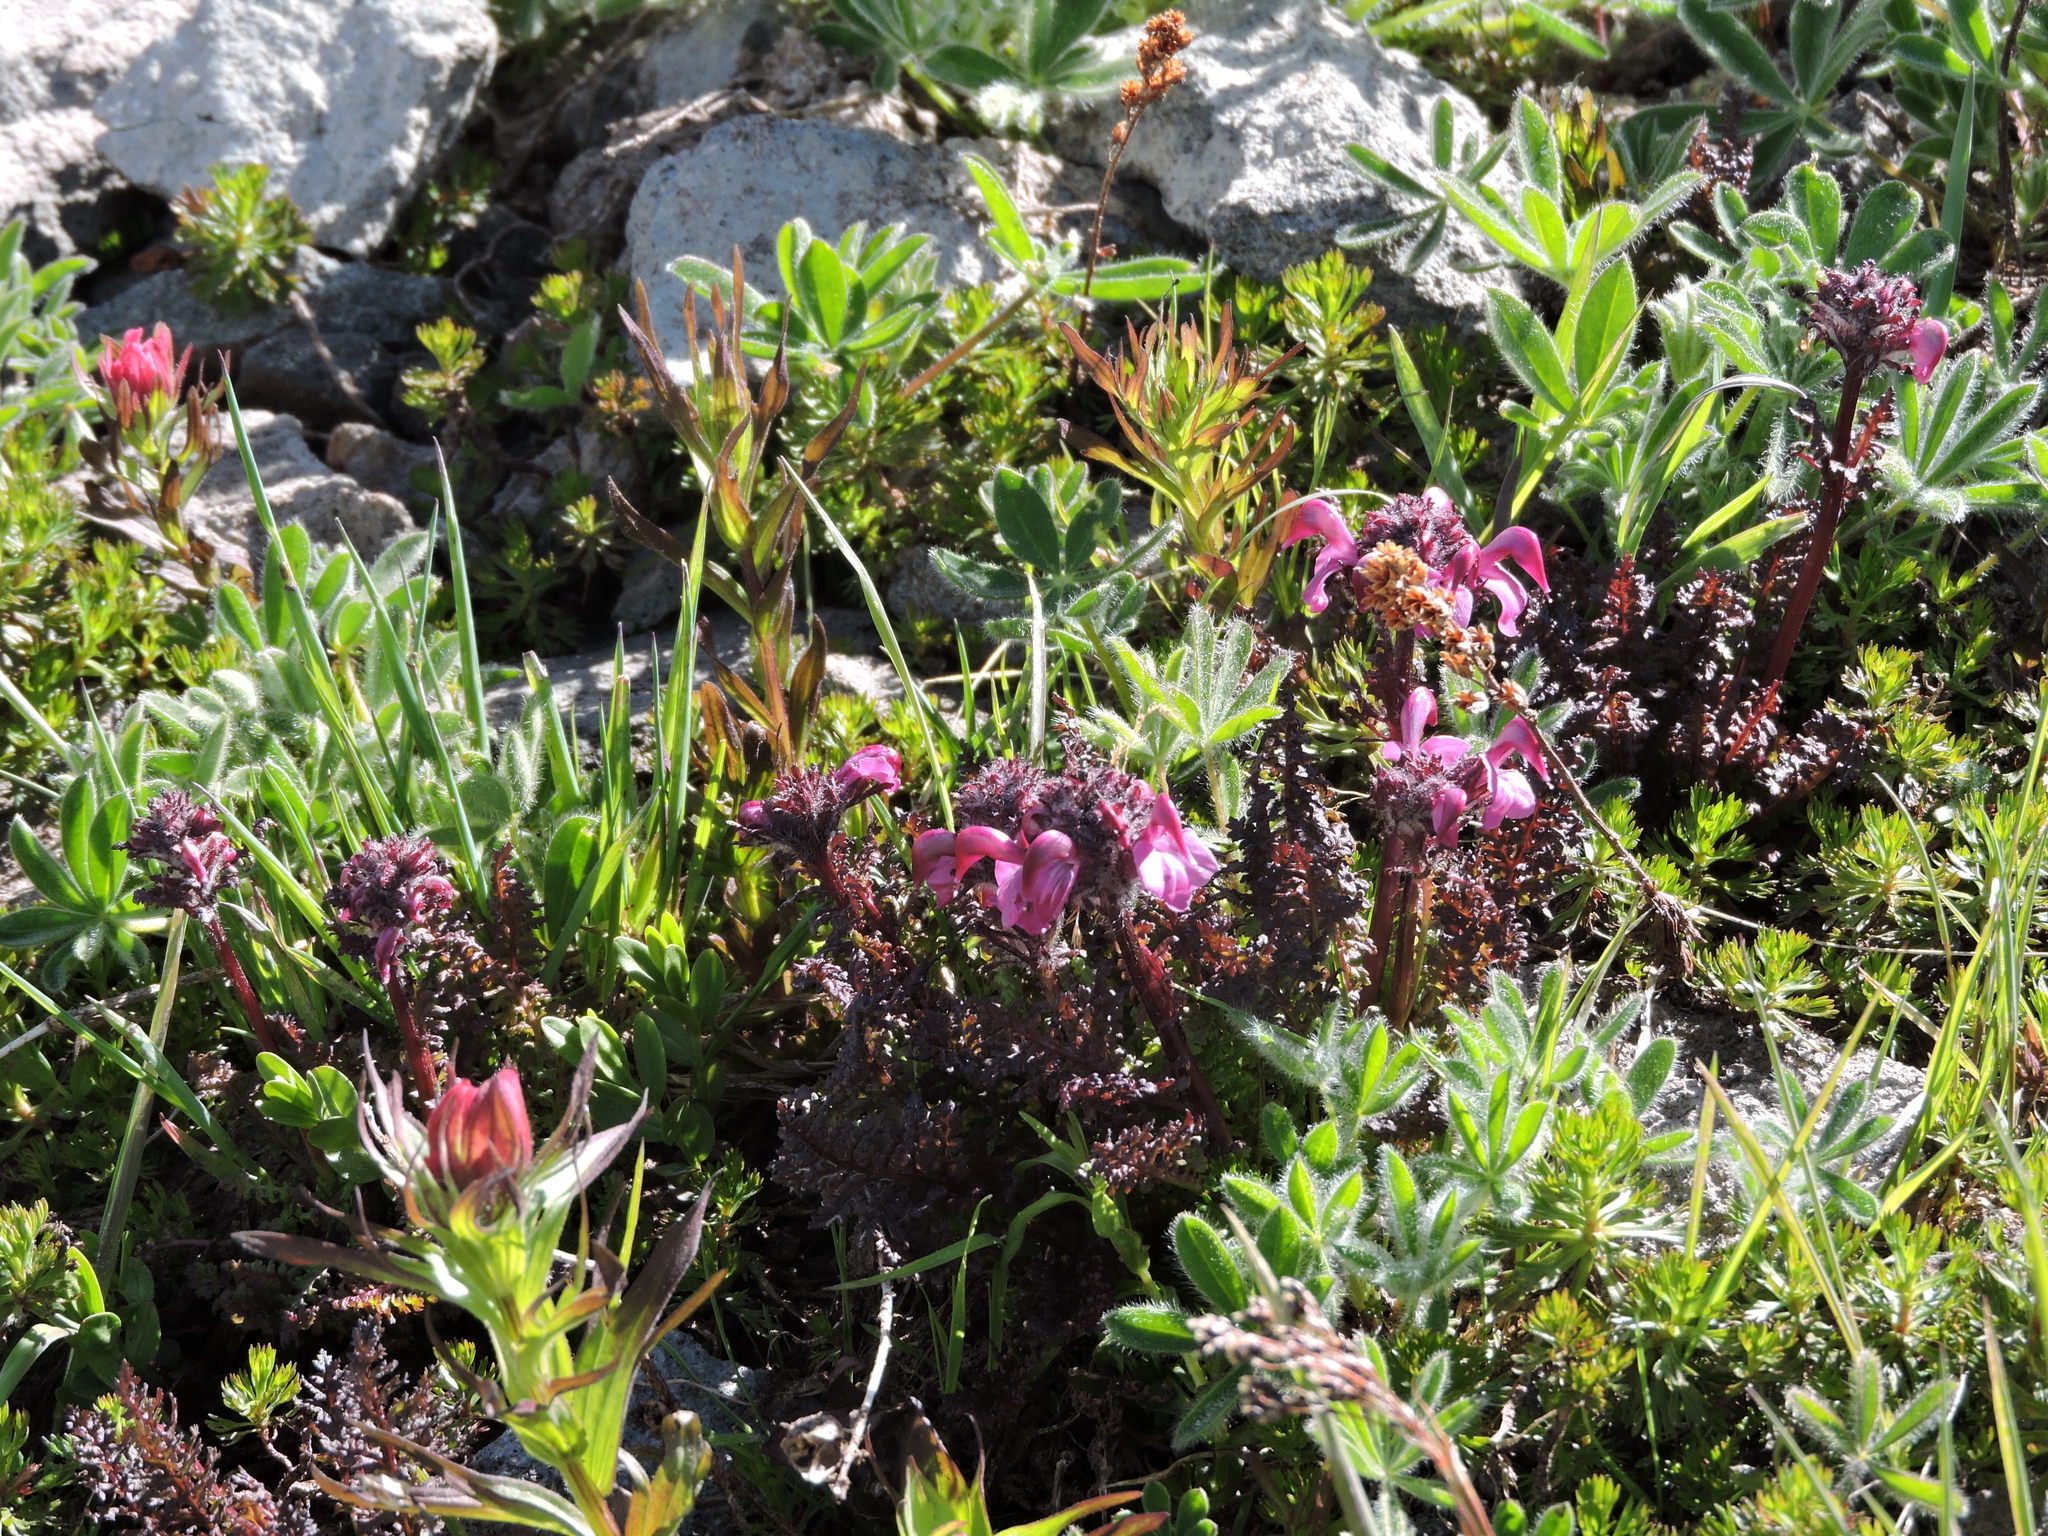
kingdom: Plantae
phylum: Tracheophyta
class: Magnoliopsida
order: Lamiales
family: Orobanchaceae
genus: Pedicularis
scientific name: Pedicularis ornithorhynchos
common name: Bird's-beak lousewort
